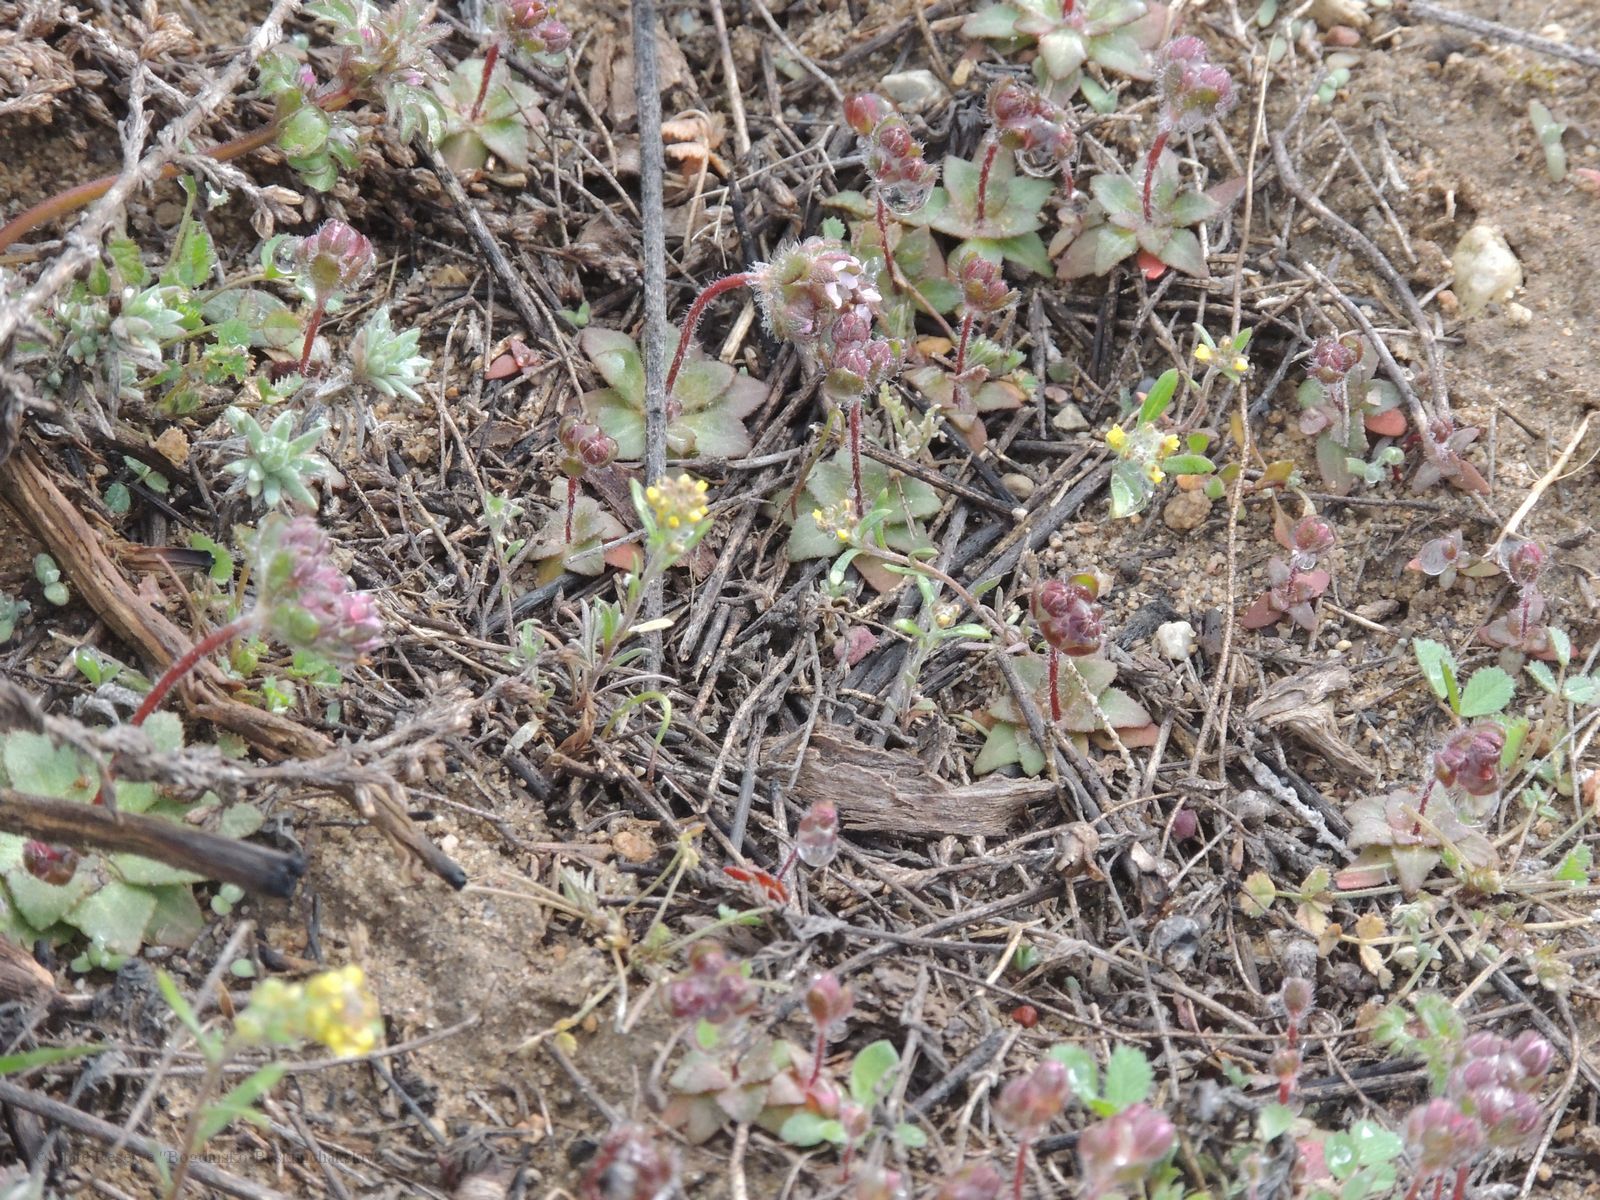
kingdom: Plantae
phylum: Tracheophyta
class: Magnoliopsida
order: Brassicales
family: Brassicaceae
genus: Alyssum
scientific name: Alyssum turkestanicum
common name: Desert alyssum
